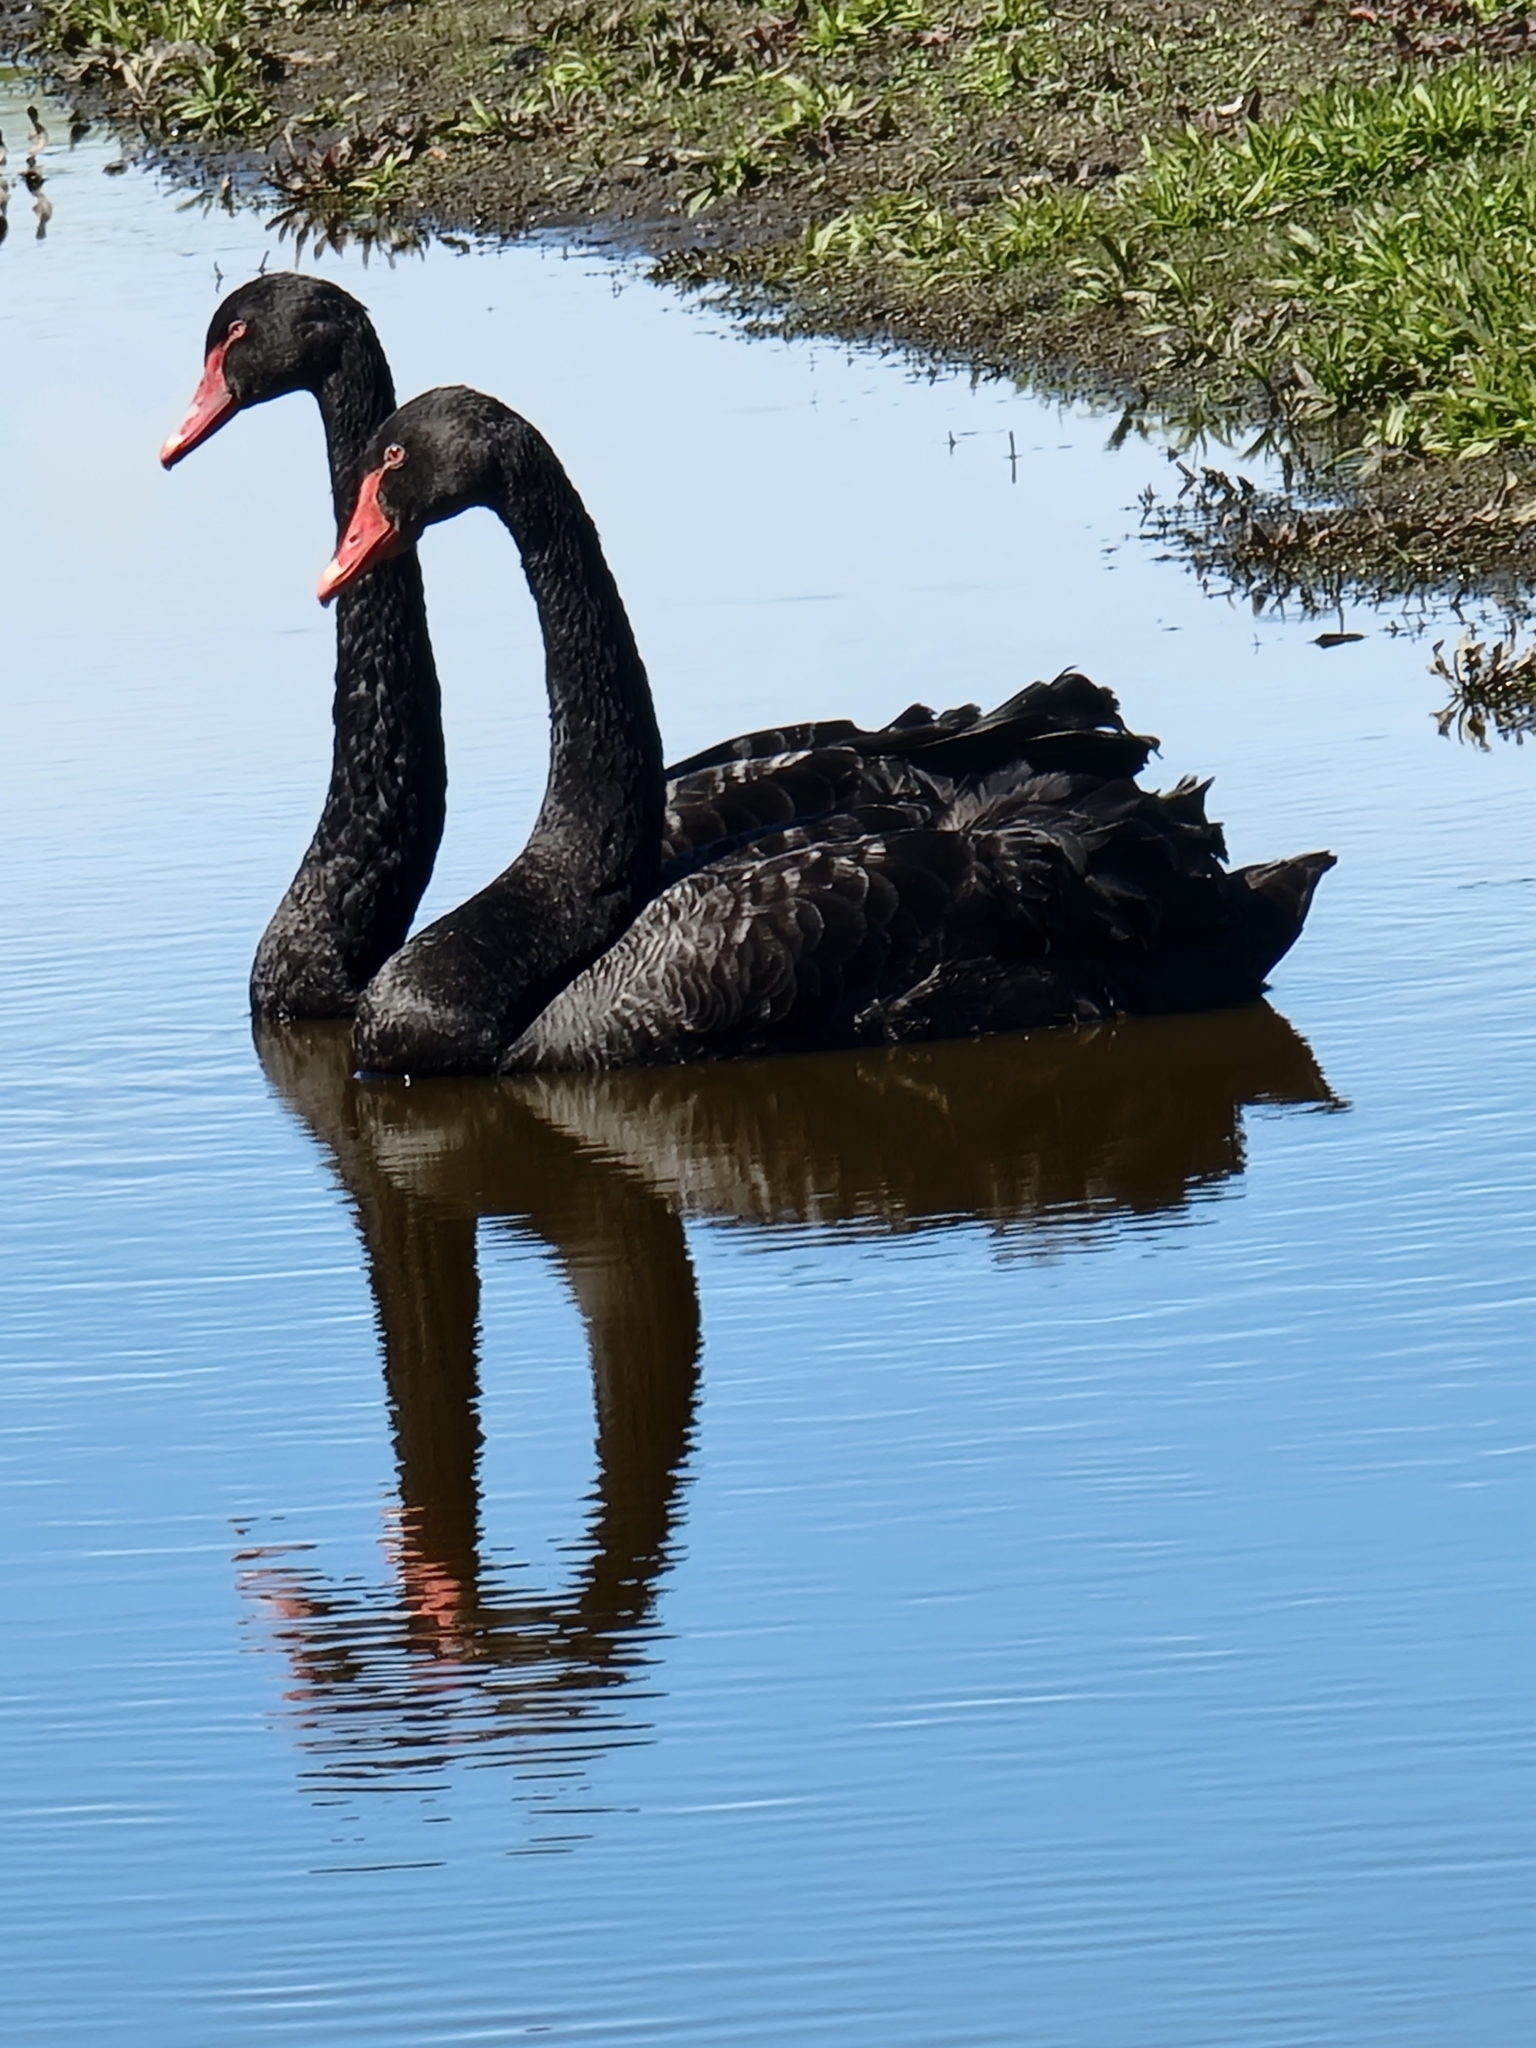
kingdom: Animalia
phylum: Chordata
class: Aves
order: Anseriformes
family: Anatidae
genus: Cygnus
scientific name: Cygnus atratus
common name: Black swan
